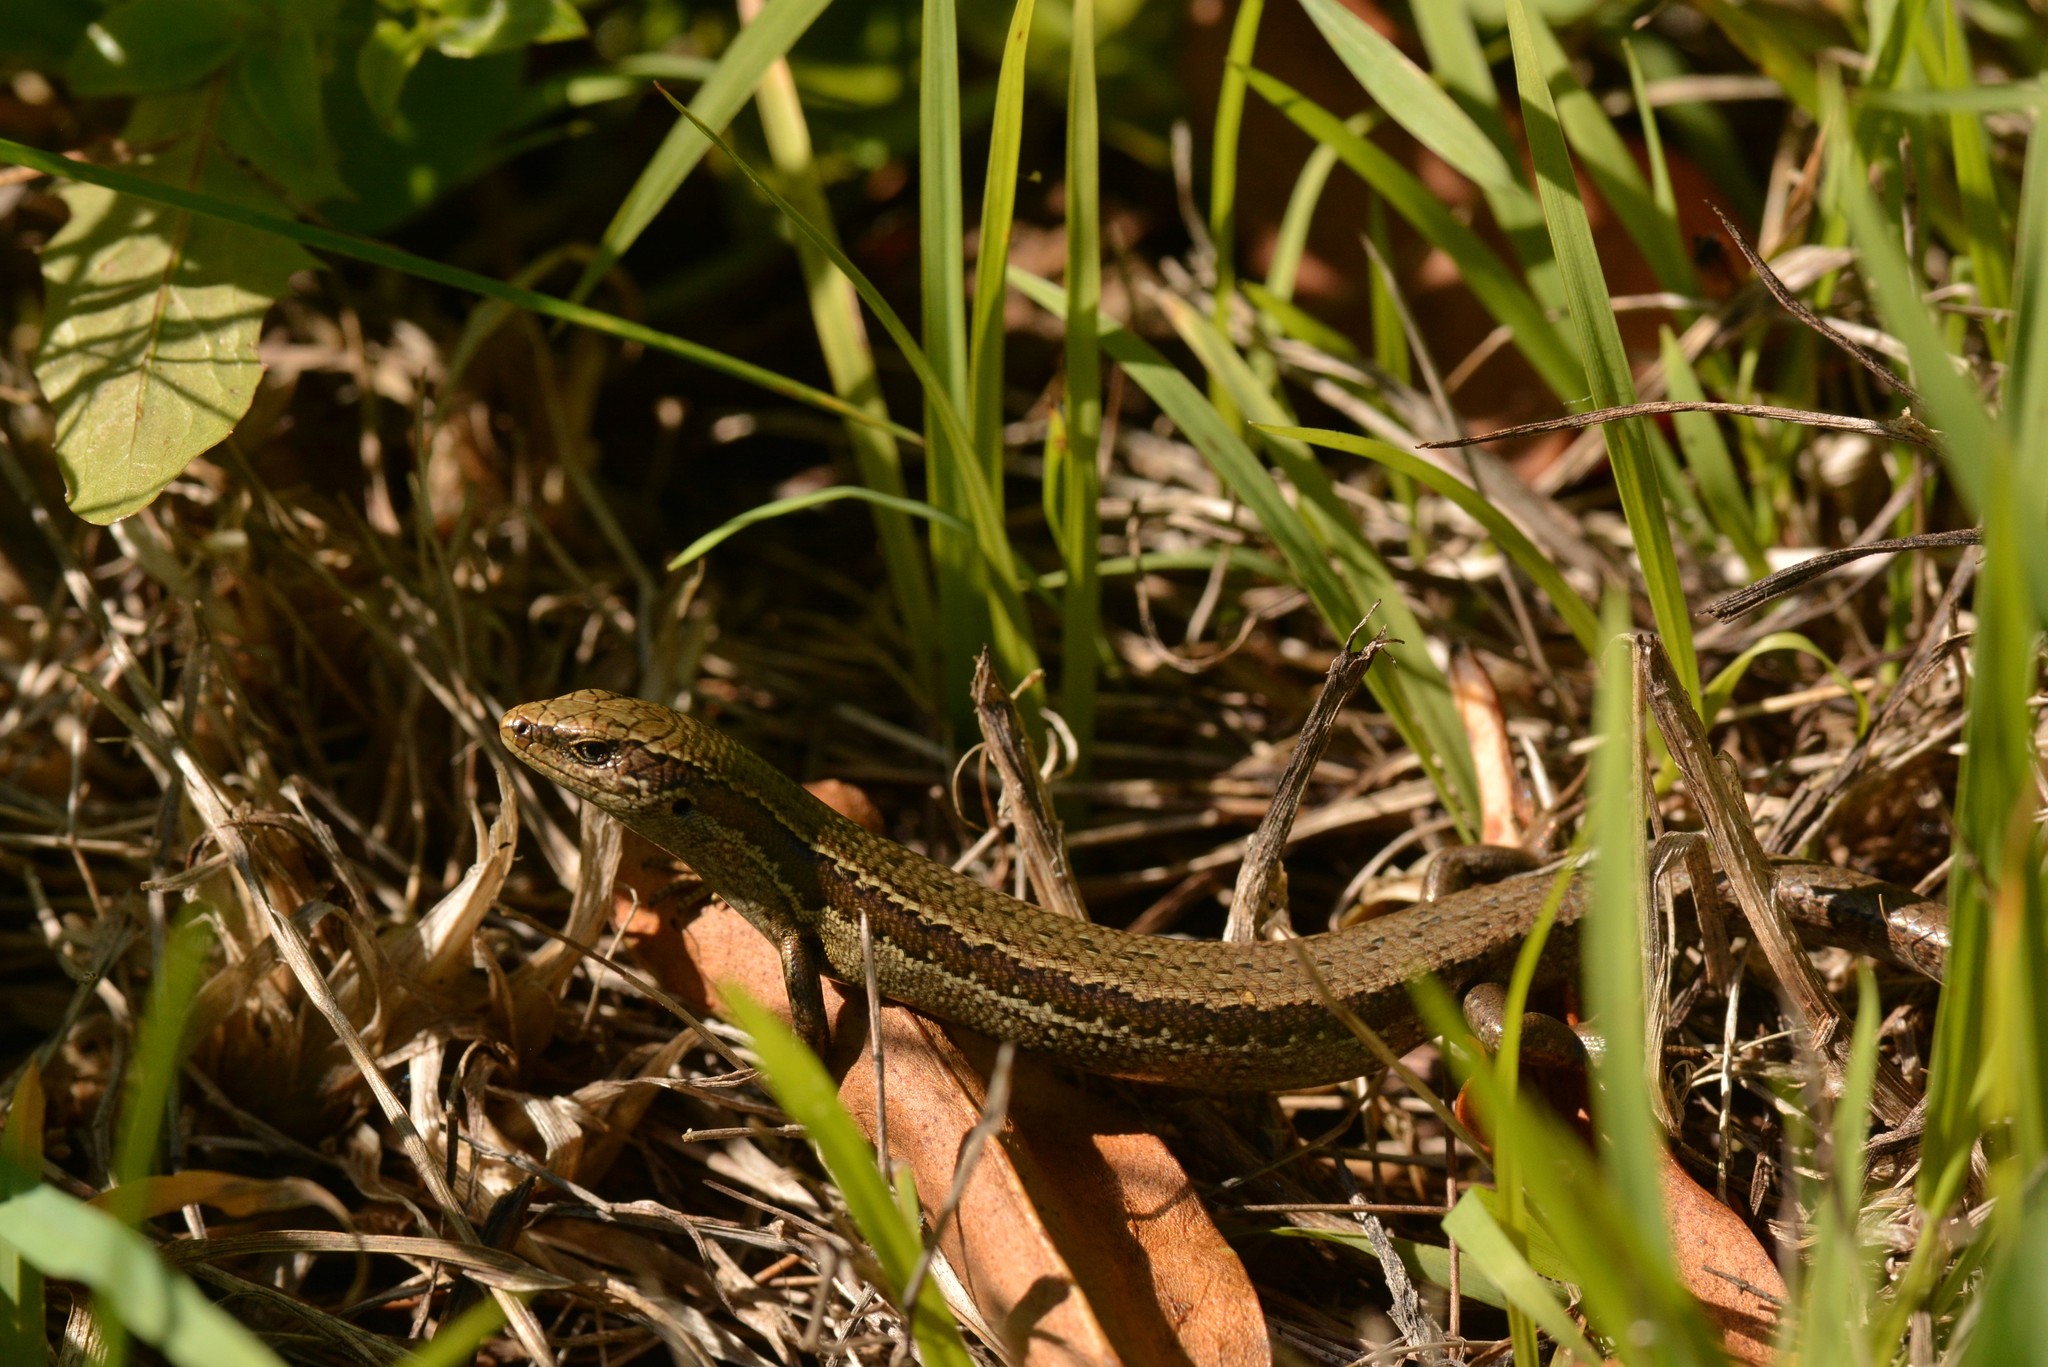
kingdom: Animalia
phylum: Chordata
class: Squamata
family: Scincidae
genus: Oligosoma
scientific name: Oligosoma polychroma
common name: Common new zealand skink
